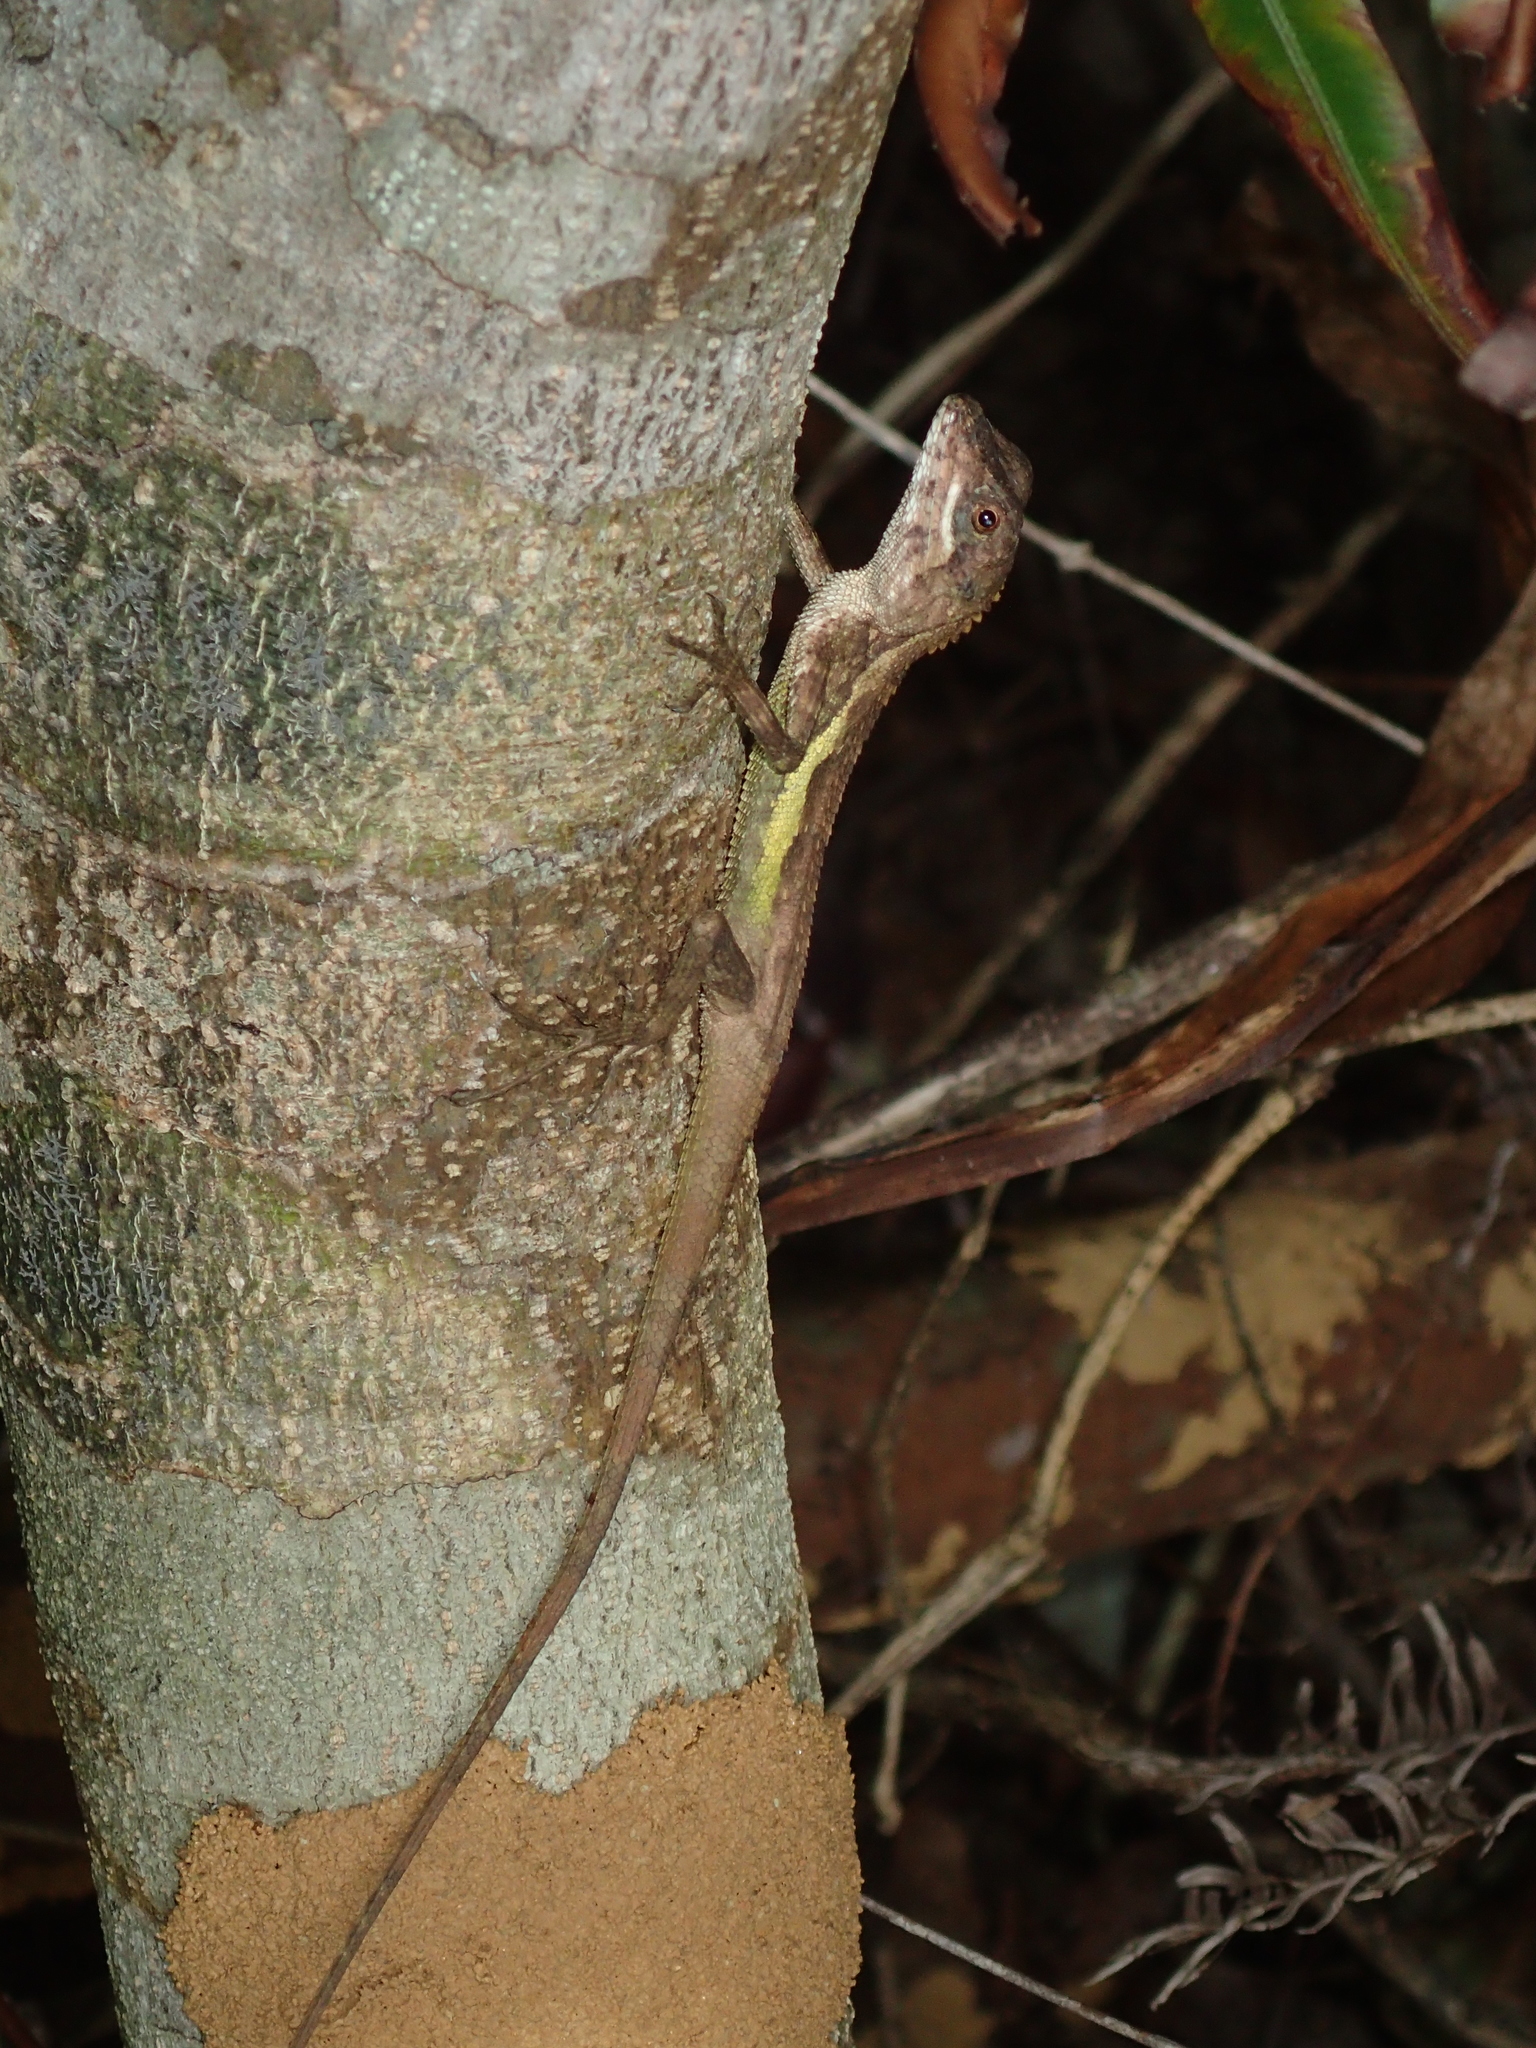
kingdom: Fungi
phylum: Basidiomycota
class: Agaricomycetes
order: Boletales
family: Diplocystidiaceae
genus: Diploderma
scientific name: Diploderma polygonatum
